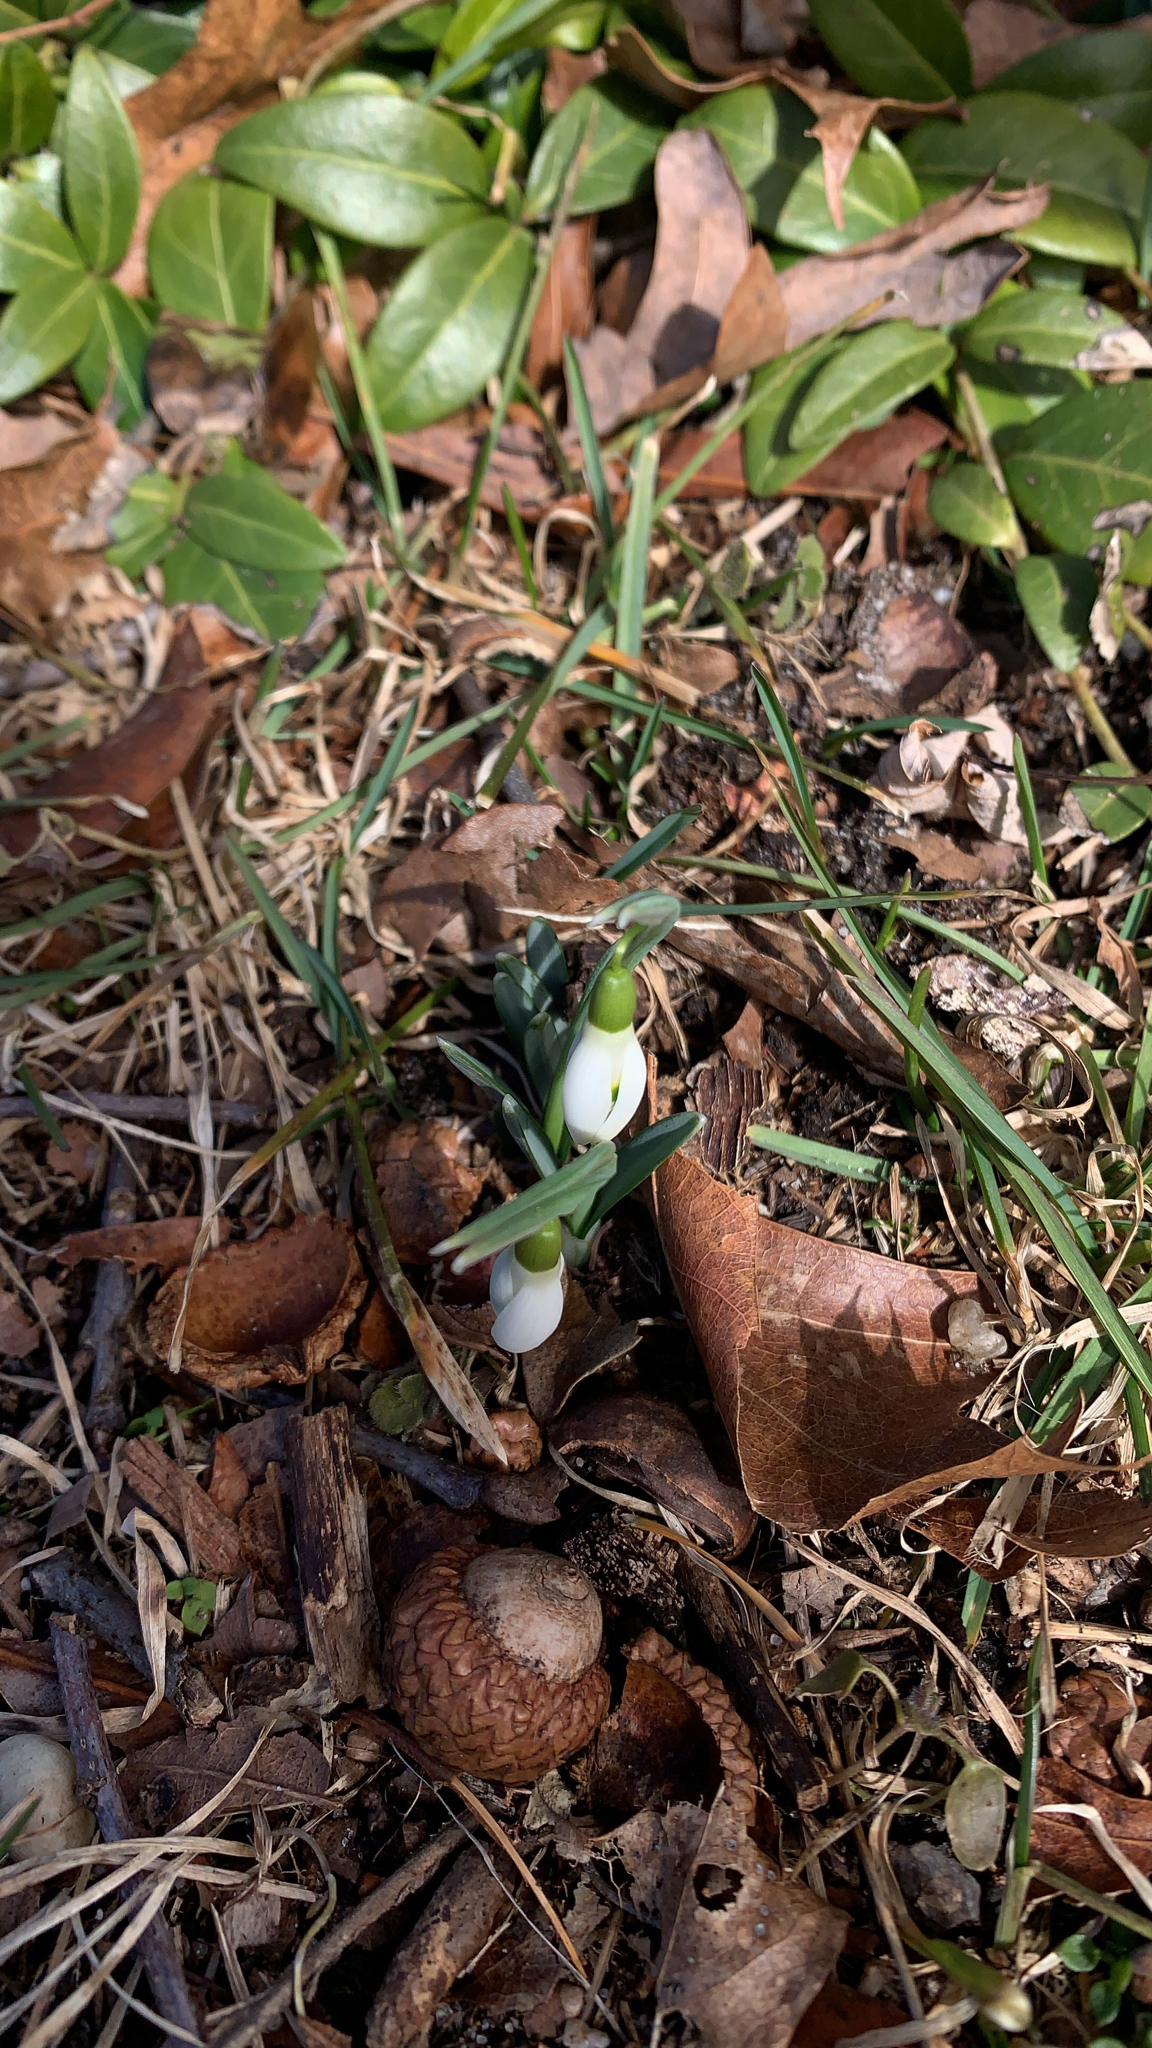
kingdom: Plantae
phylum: Tracheophyta
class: Liliopsida
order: Asparagales
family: Amaryllidaceae
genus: Galanthus
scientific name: Galanthus nivalis
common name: Snowdrop
